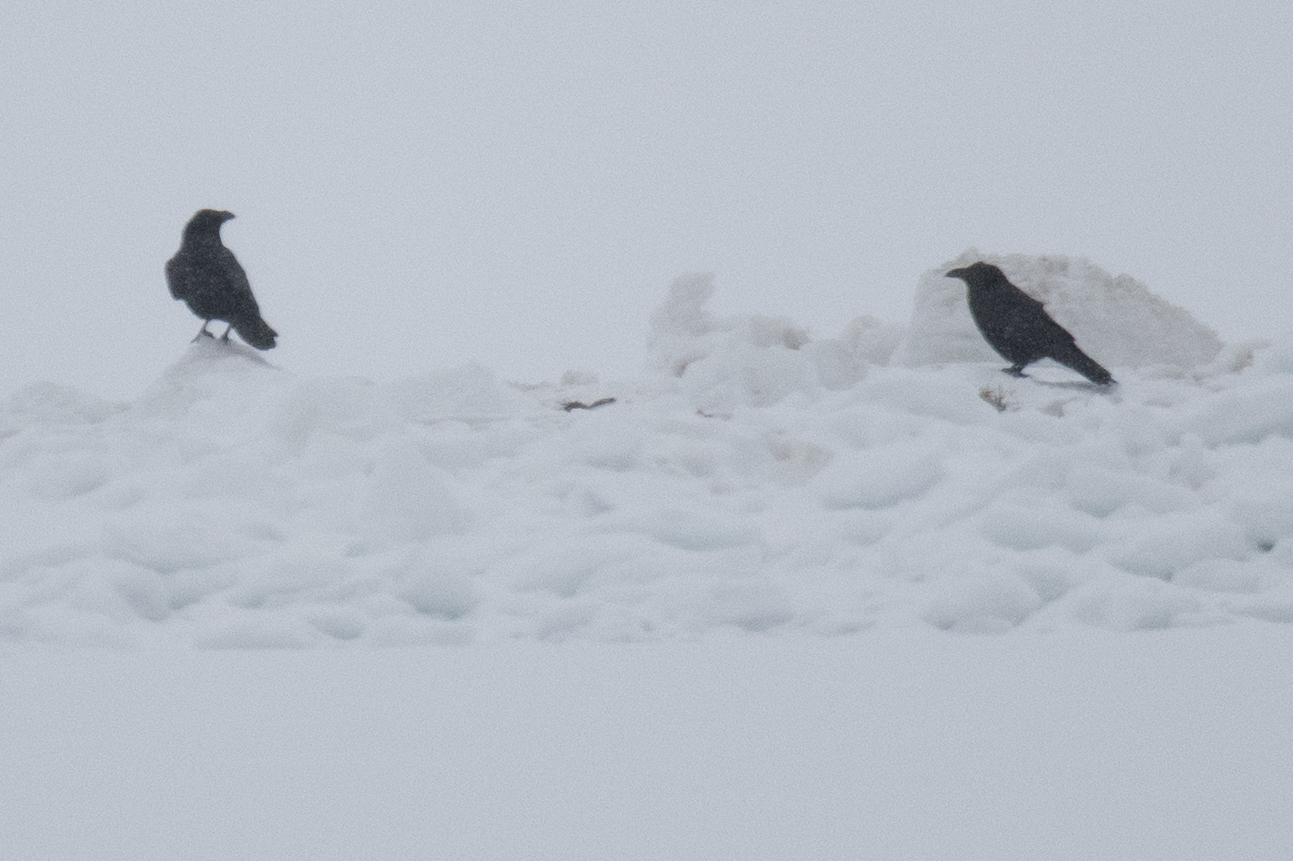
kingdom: Animalia
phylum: Chordata
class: Aves
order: Passeriformes
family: Corvidae
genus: Corvus
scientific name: Corvus corax
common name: Common raven
